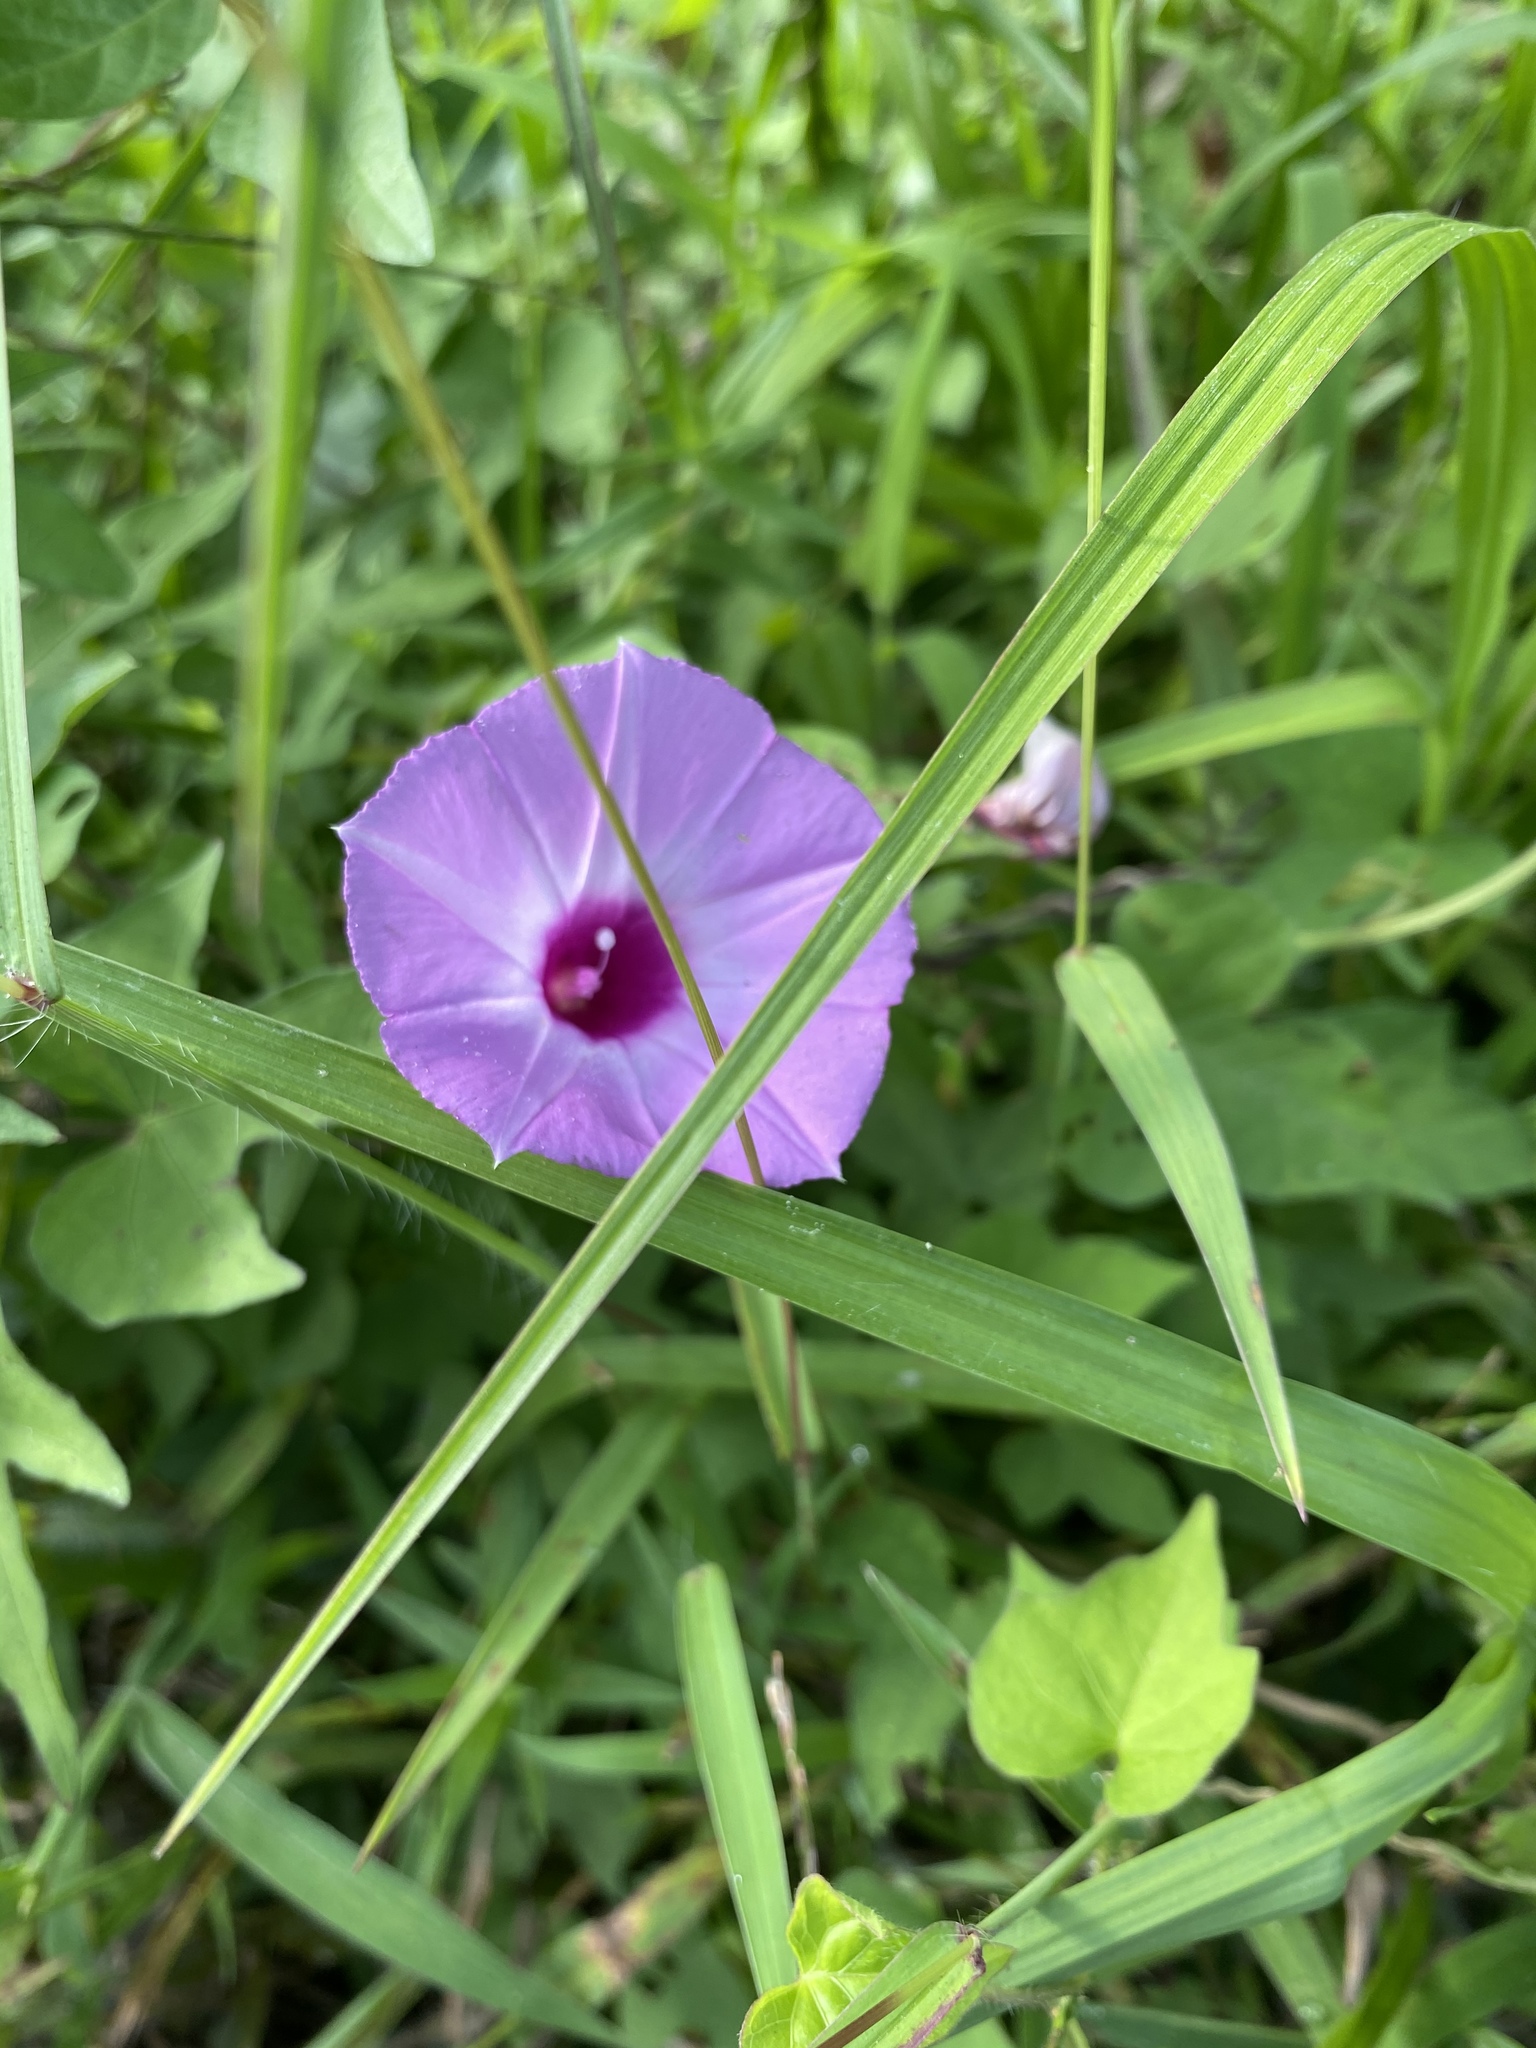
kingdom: Plantae
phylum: Tracheophyta
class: Magnoliopsida
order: Solanales
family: Convolvulaceae
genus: Ipomoea
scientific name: Ipomoea cordatotriloba
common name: Cotton morning glory
